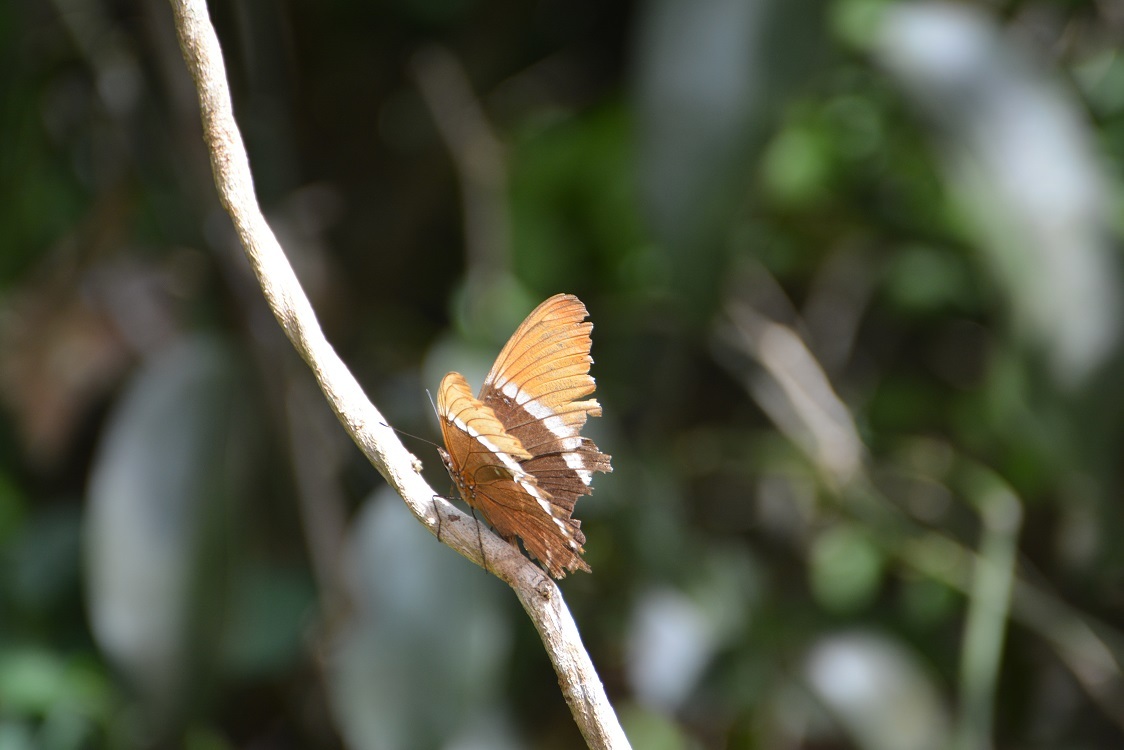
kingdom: Animalia
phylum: Arthropoda
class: Insecta
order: Lepidoptera
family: Nymphalidae
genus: Siproeta
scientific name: Siproeta epaphus
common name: Rusty-tipped page
